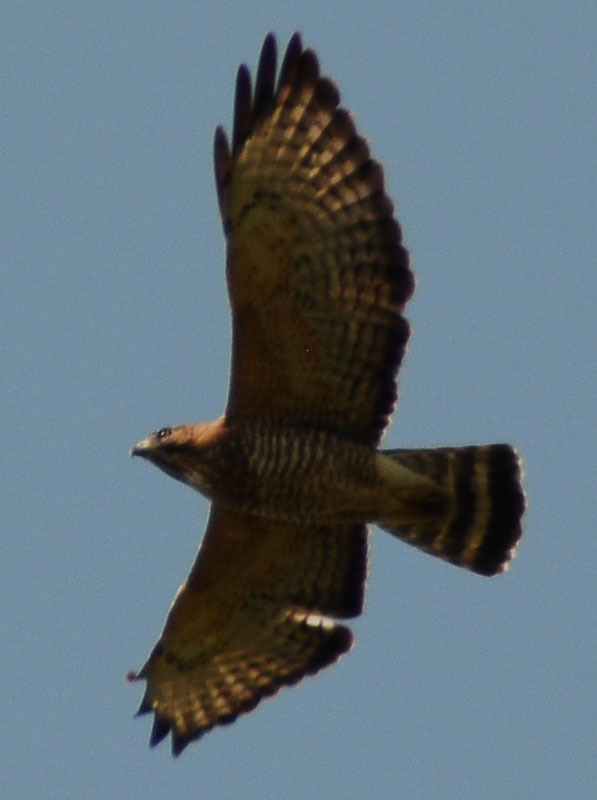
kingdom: Animalia
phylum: Chordata
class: Aves
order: Accipitriformes
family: Accipitridae
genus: Buteo
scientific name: Buteo platypterus
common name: Broad-winged hawk
